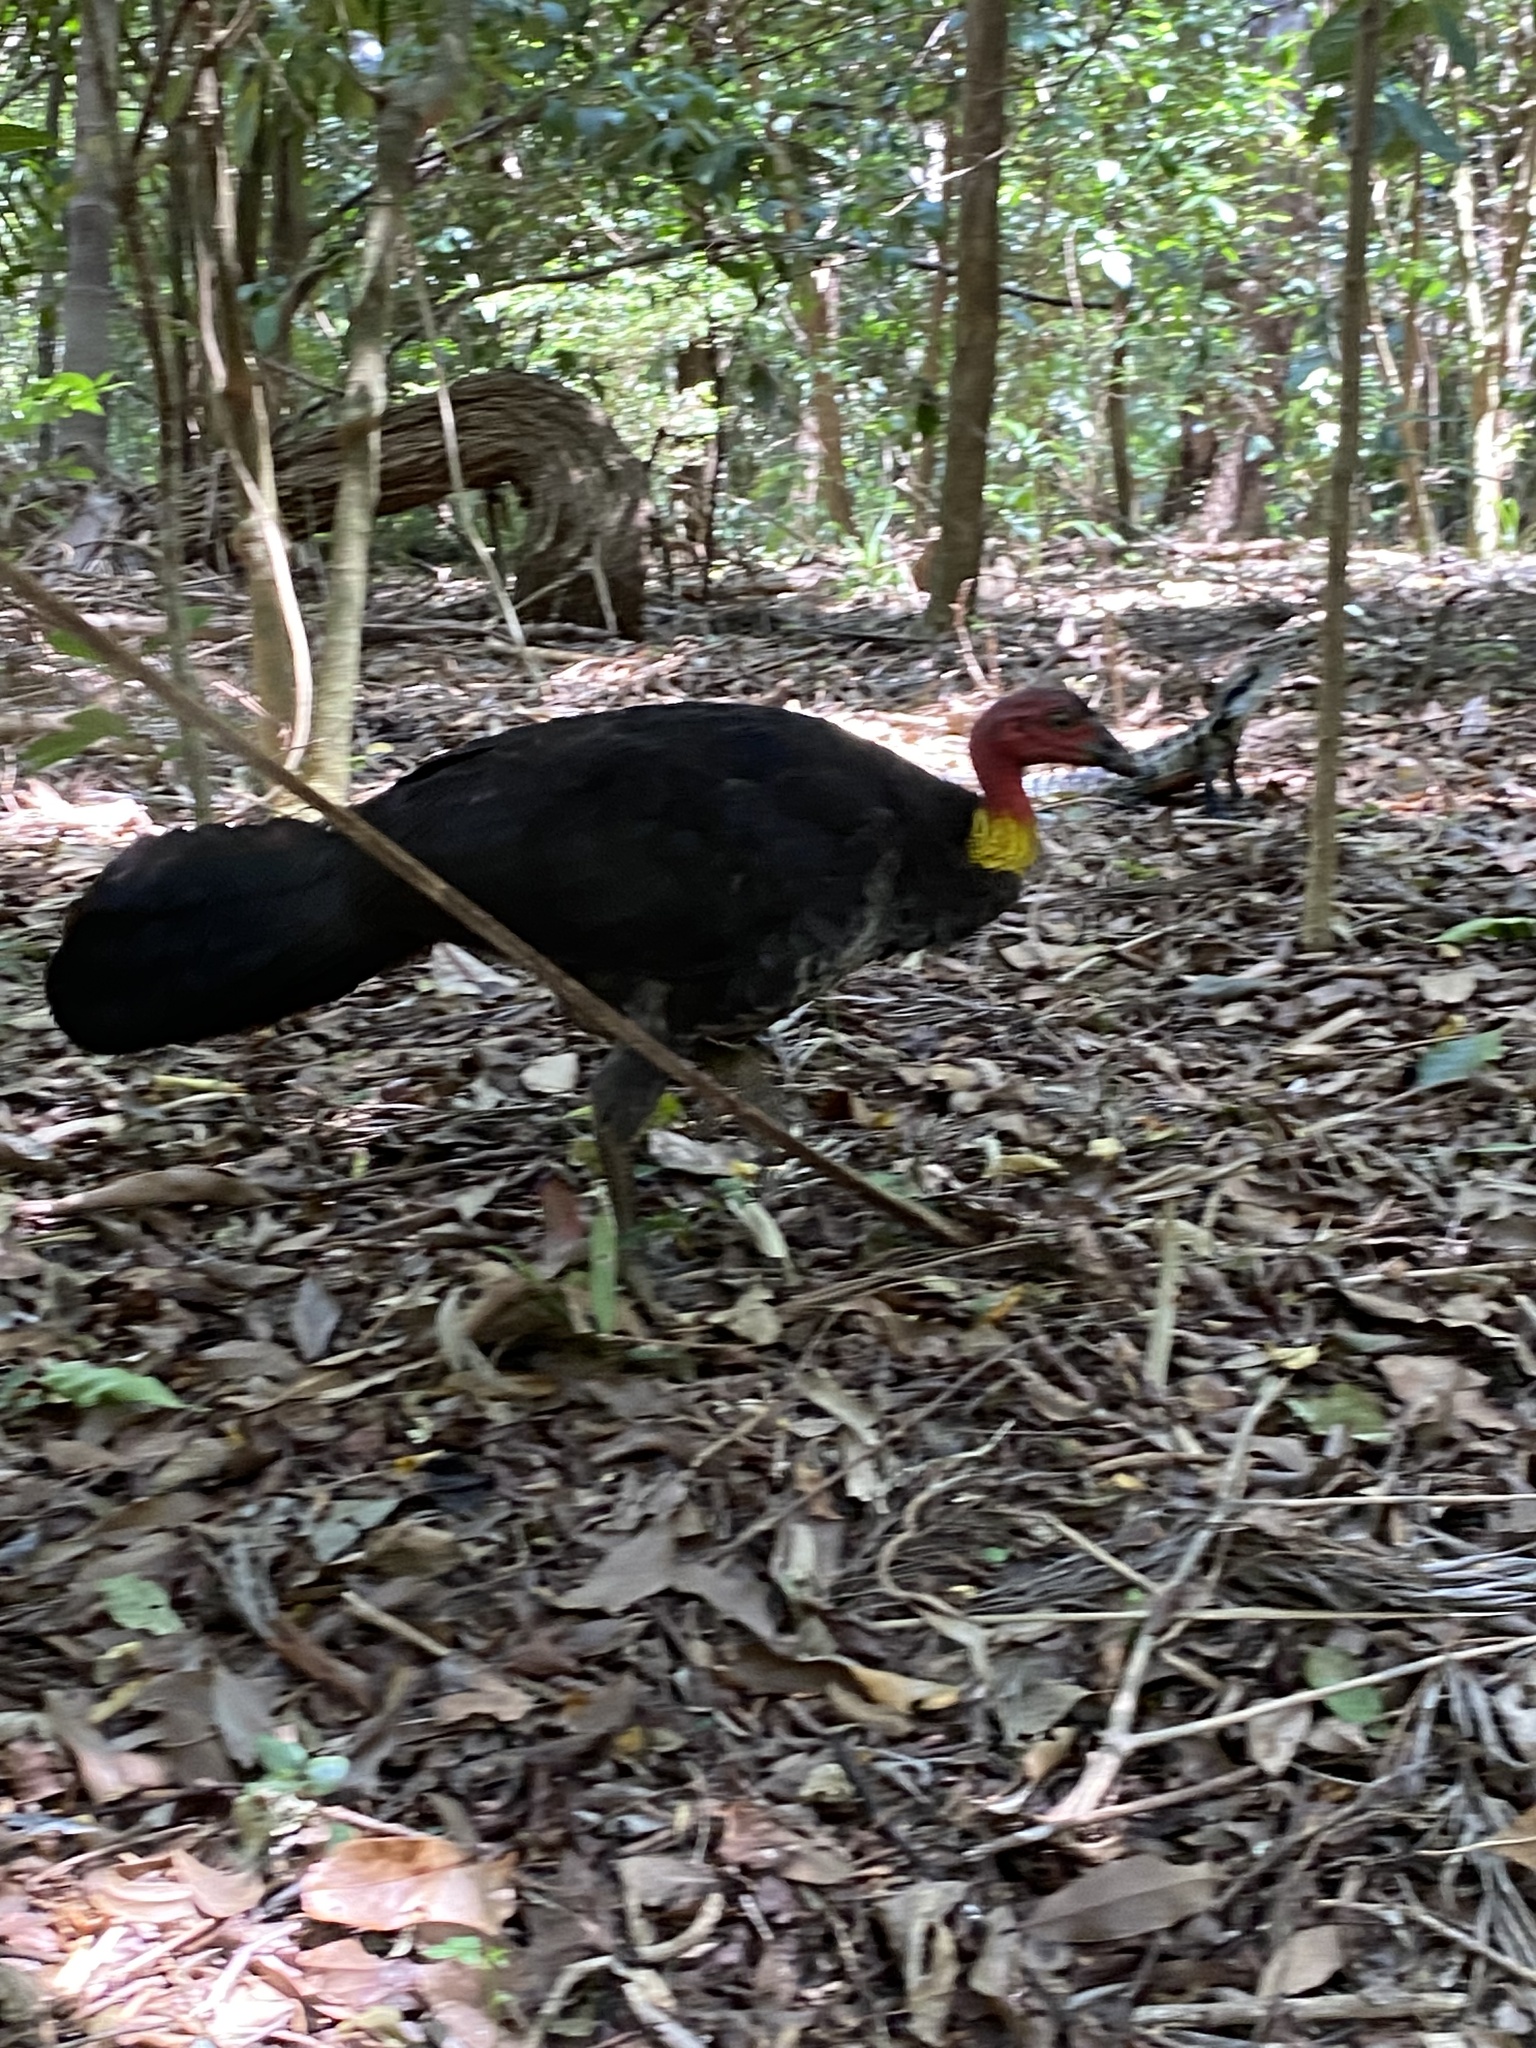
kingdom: Animalia
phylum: Chordata
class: Aves
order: Galliformes
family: Megapodiidae
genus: Alectura
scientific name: Alectura lathami
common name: Australian brushturkey
